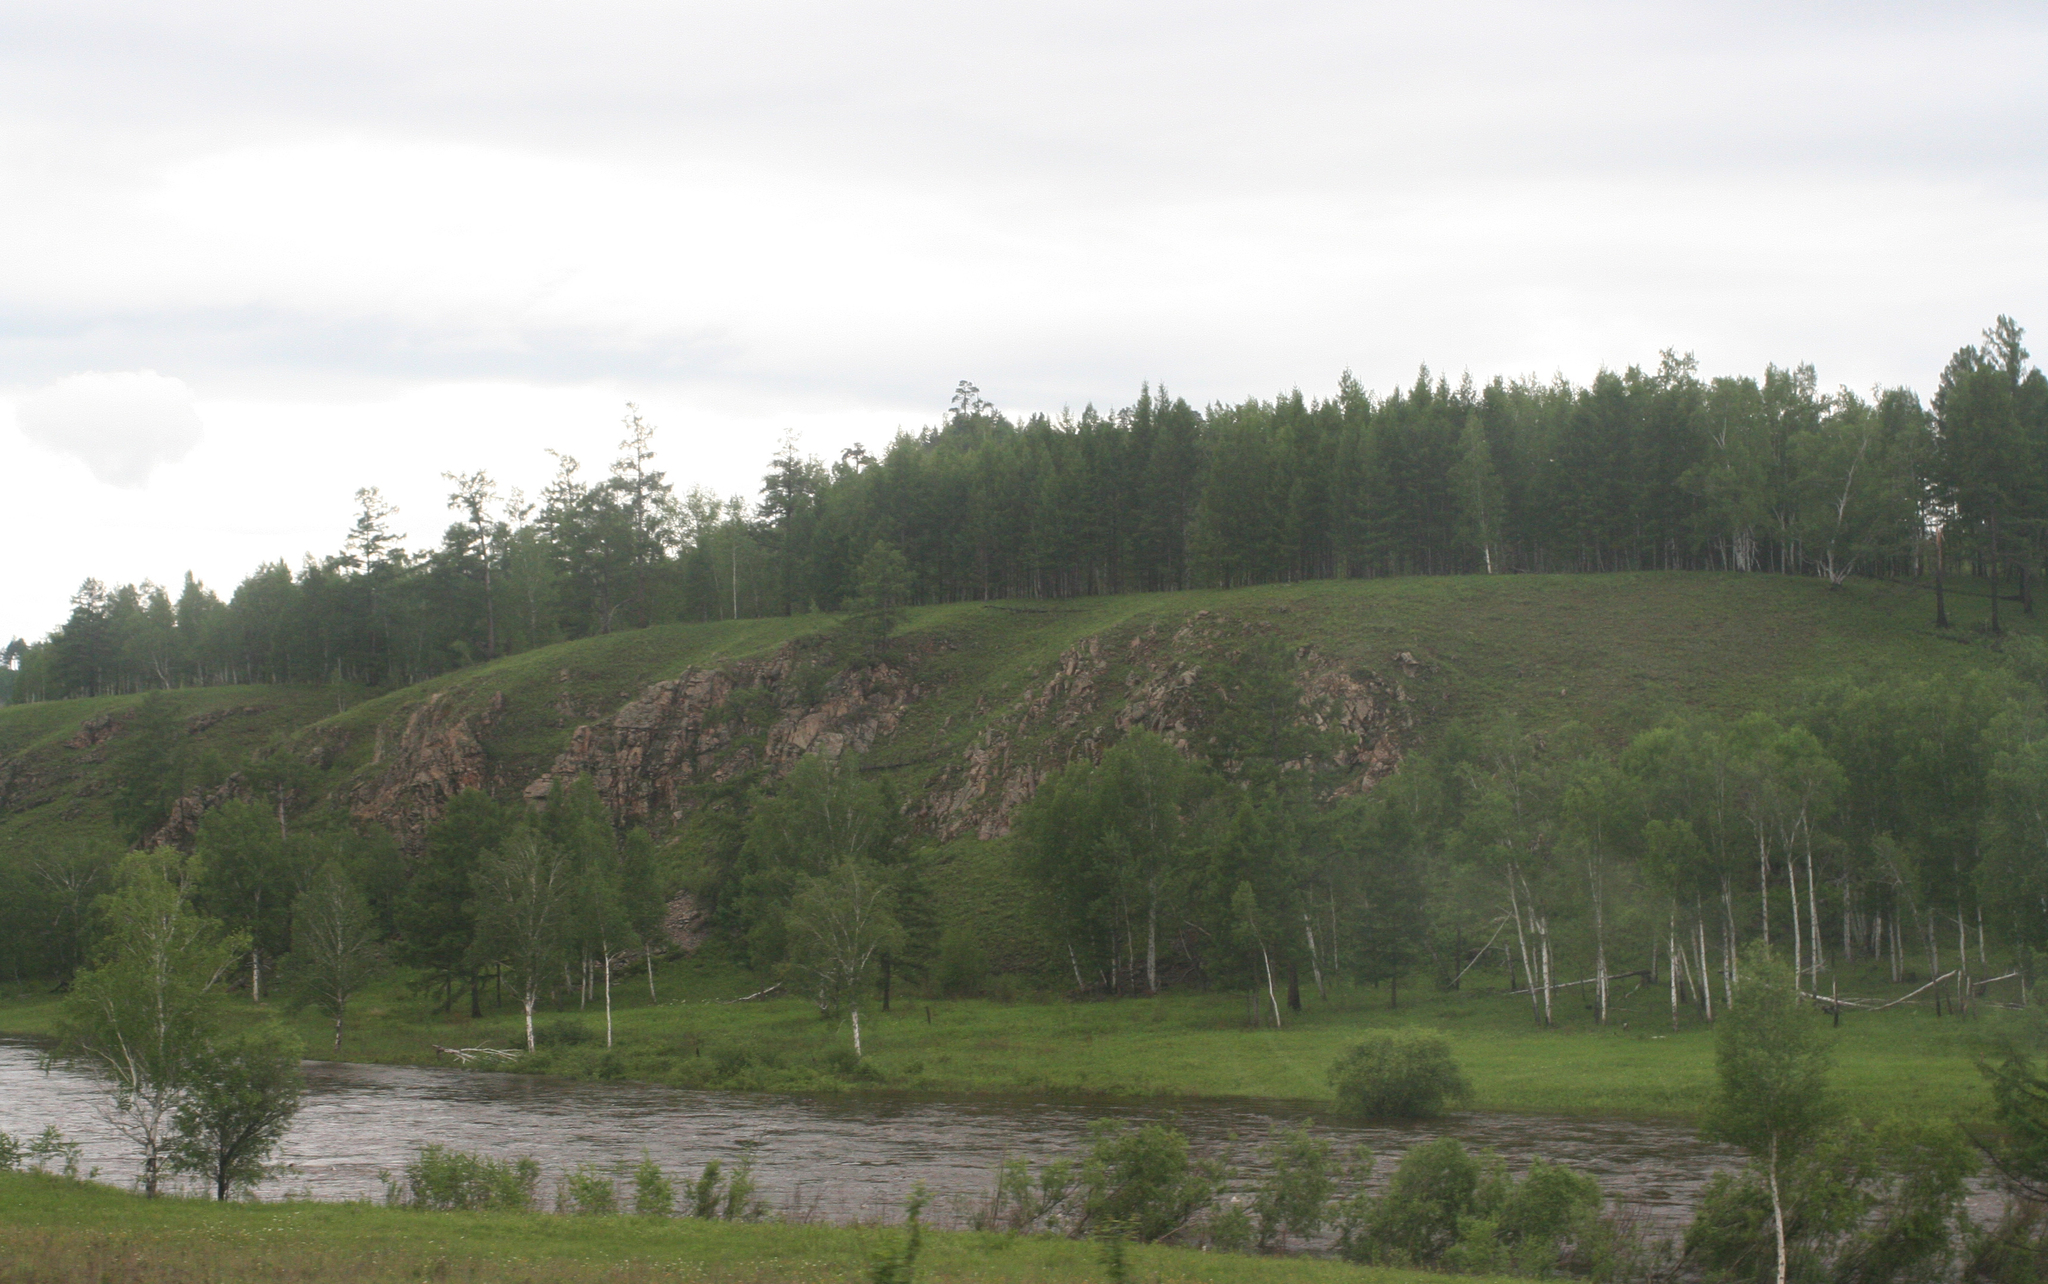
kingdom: Plantae
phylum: Tracheophyta
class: Magnoliopsida
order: Fagales
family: Betulaceae
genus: Betula
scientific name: Betula pendula
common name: Silver birch
